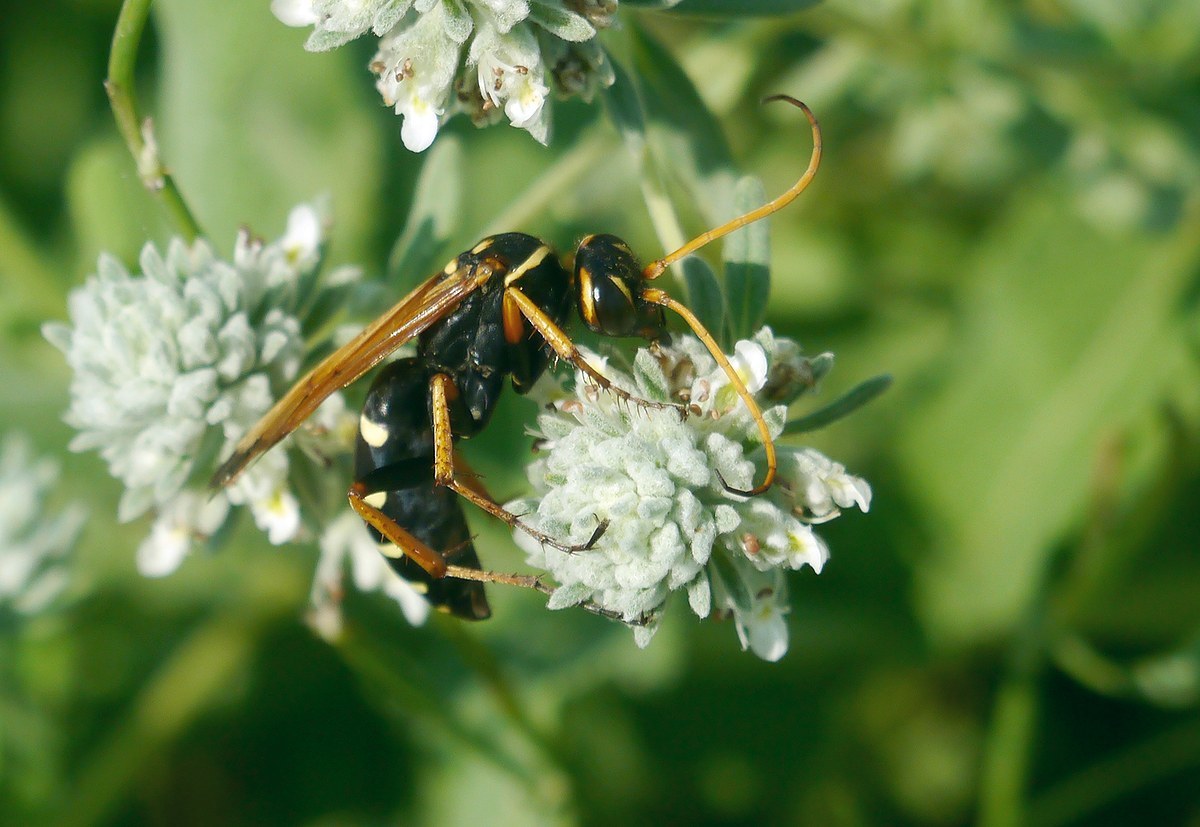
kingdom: Animalia
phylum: Arthropoda
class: Insecta
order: Hymenoptera
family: Pompilidae
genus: Parabatozonus
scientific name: Parabatozonus lacerticida
